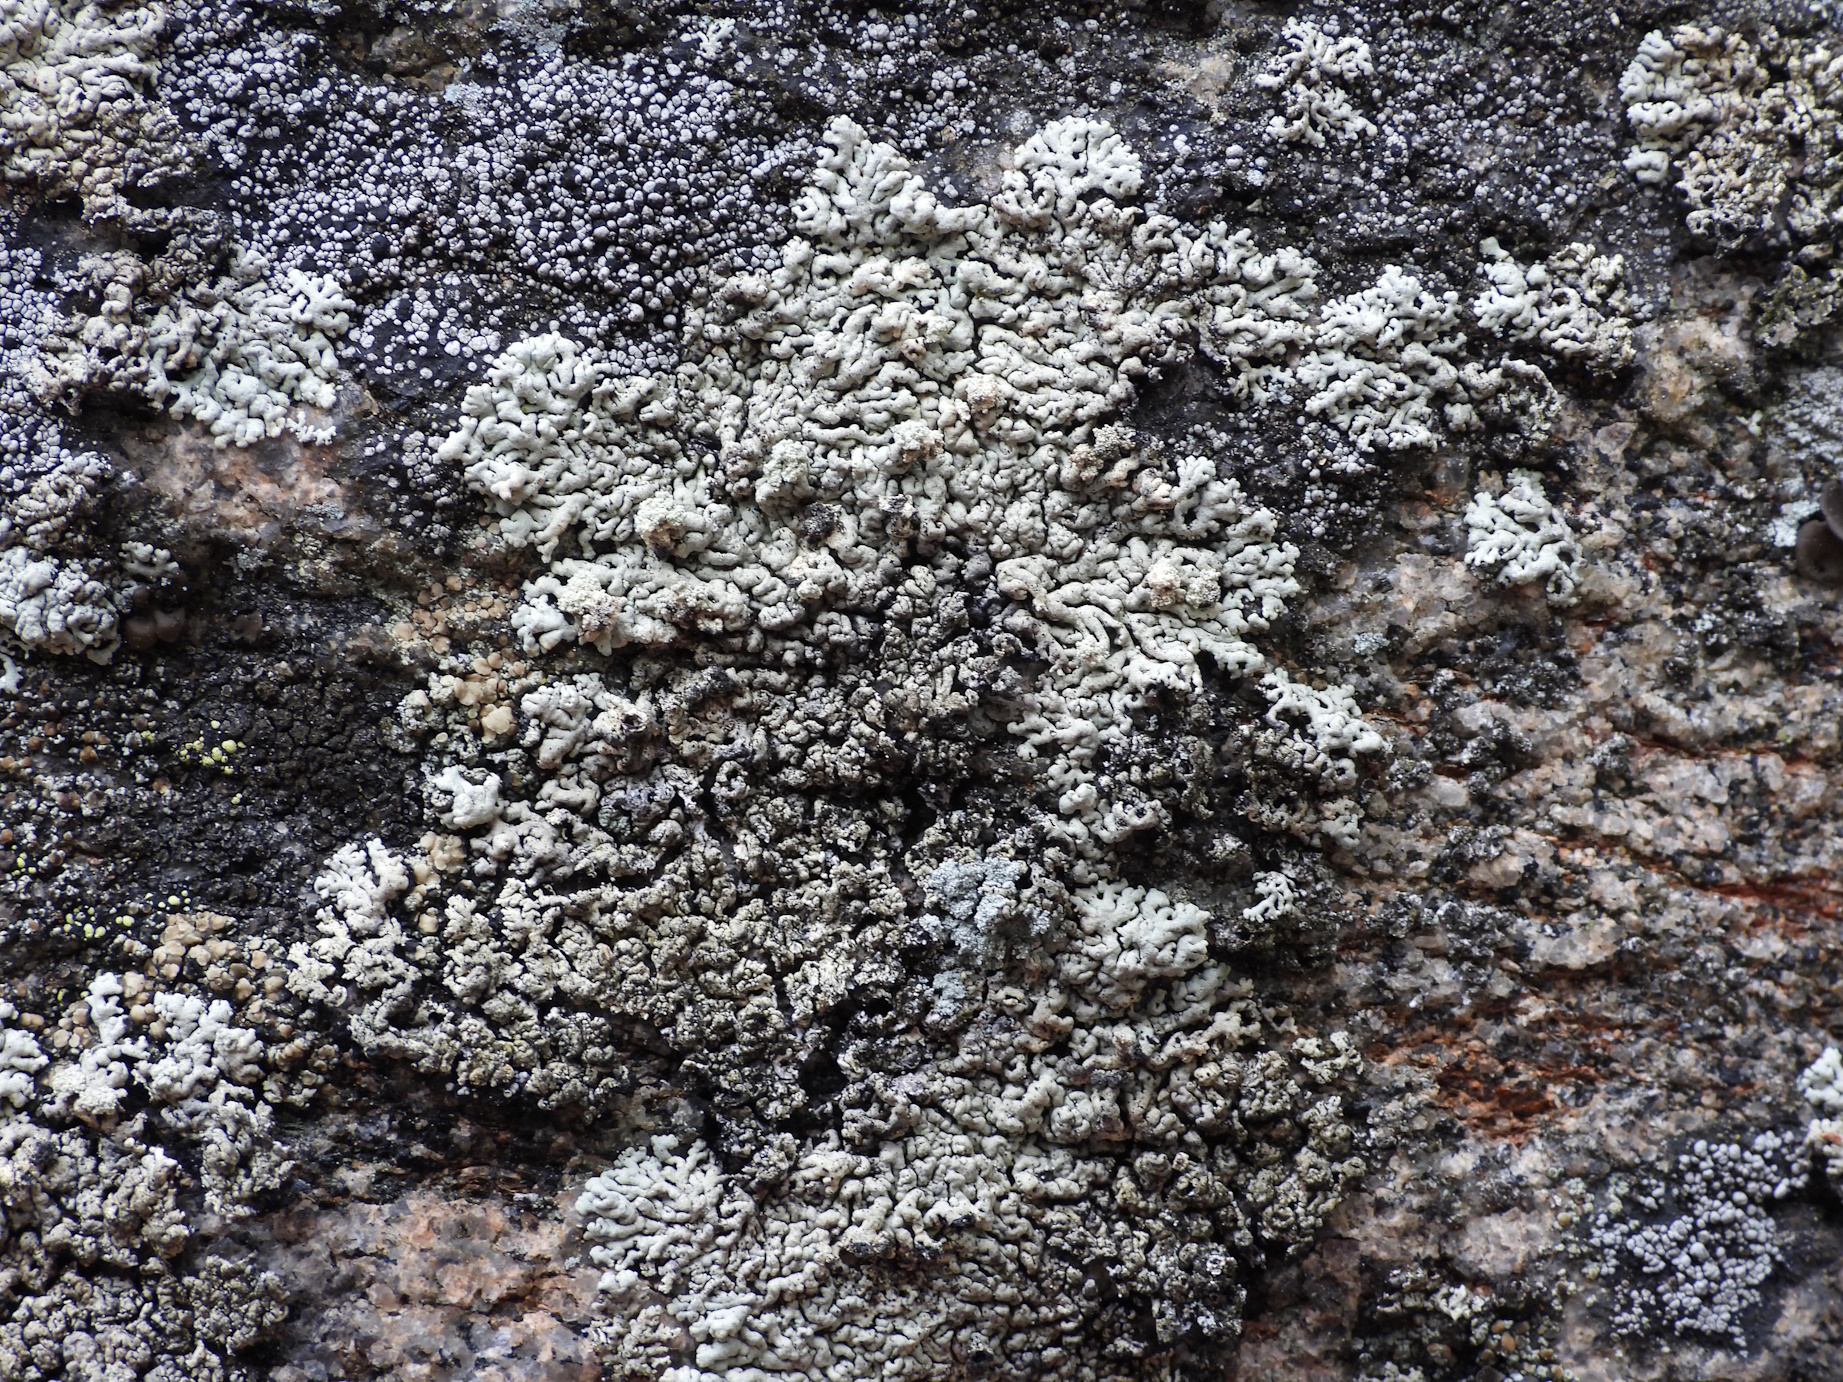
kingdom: Fungi
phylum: Ascomycota
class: Lecanoromycetes
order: Lecanorales
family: Parmeliaceae
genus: Arctoparmelia
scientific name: Arctoparmelia incurva
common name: Bent ring lichen
